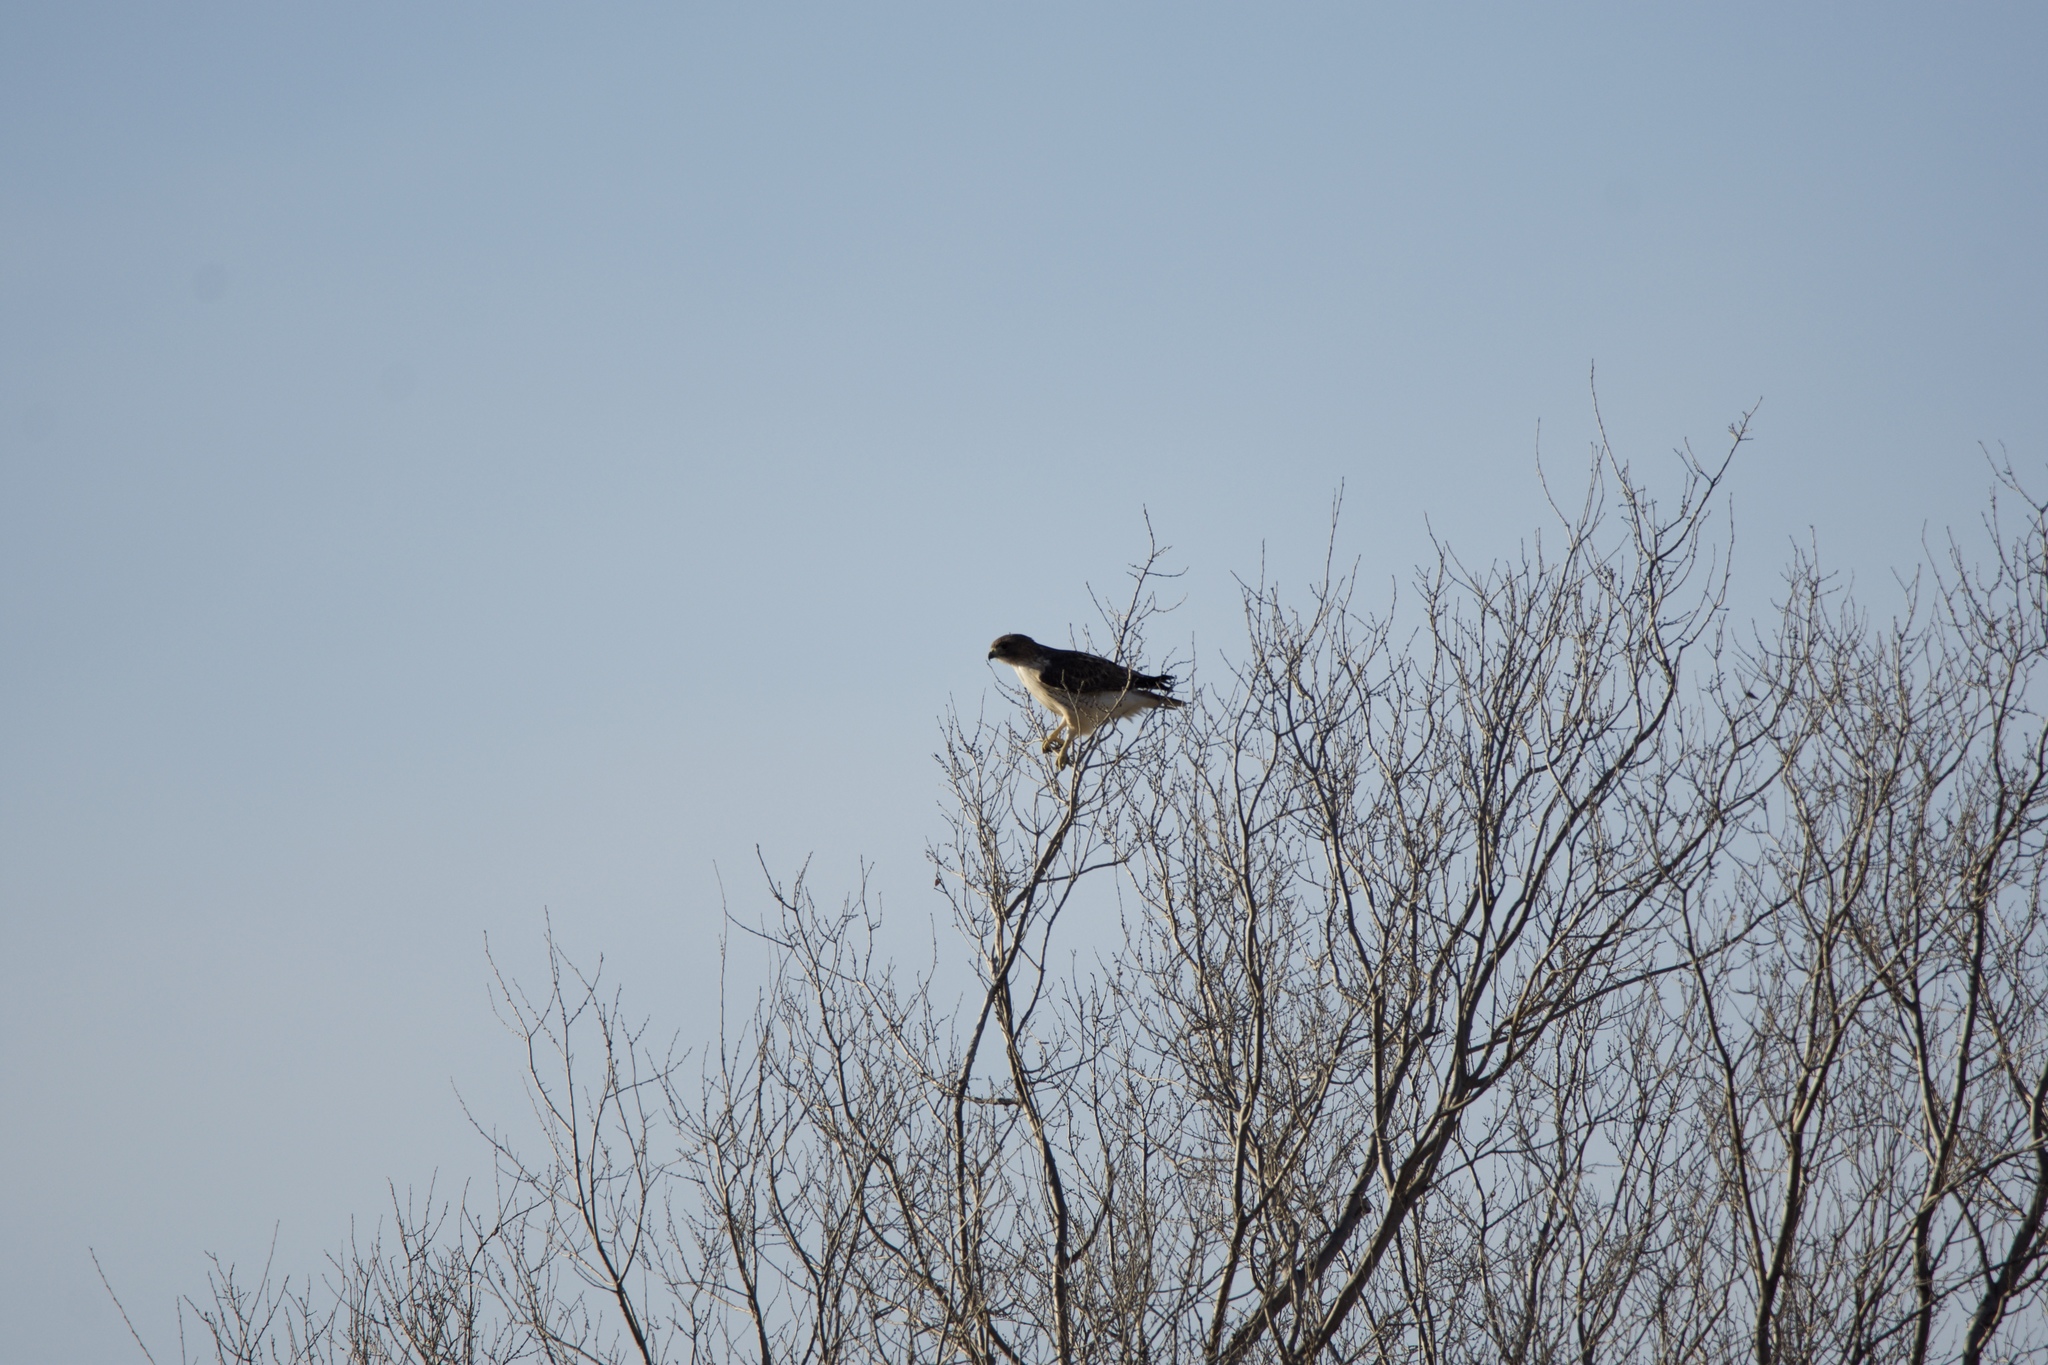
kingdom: Animalia
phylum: Chordata
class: Aves
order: Accipitriformes
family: Accipitridae
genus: Buteo
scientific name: Buteo jamaicensis
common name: Red-tailed hawk
